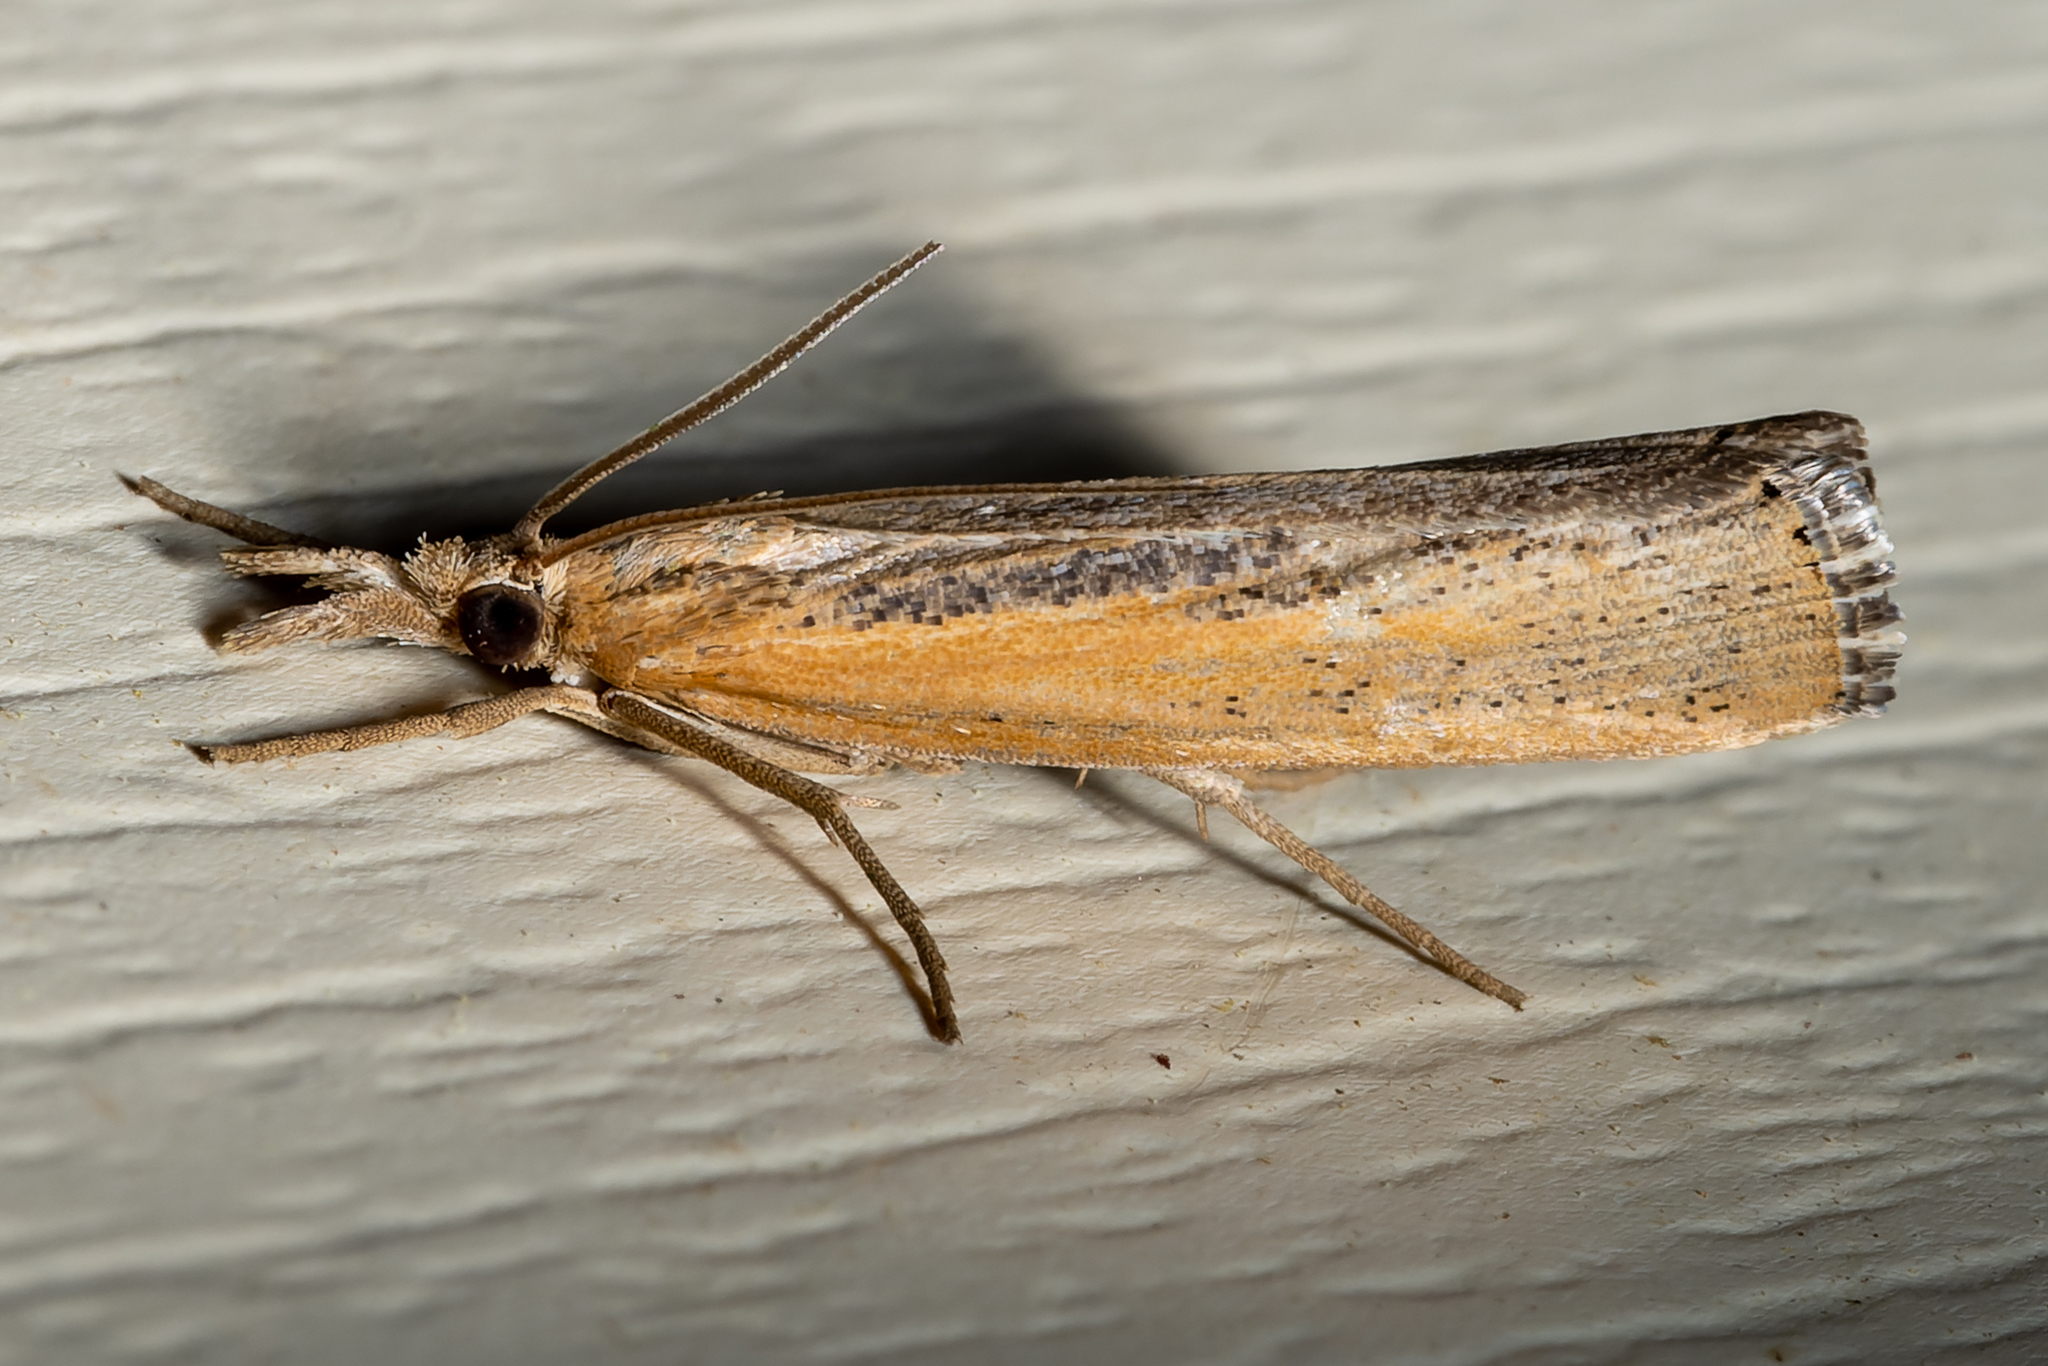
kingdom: Animalia
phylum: Arthropoda
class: Insecta
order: Lepidoptera
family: Crambidae
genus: Pediasia
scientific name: Pediasia trisecta
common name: Sod webworm moth
